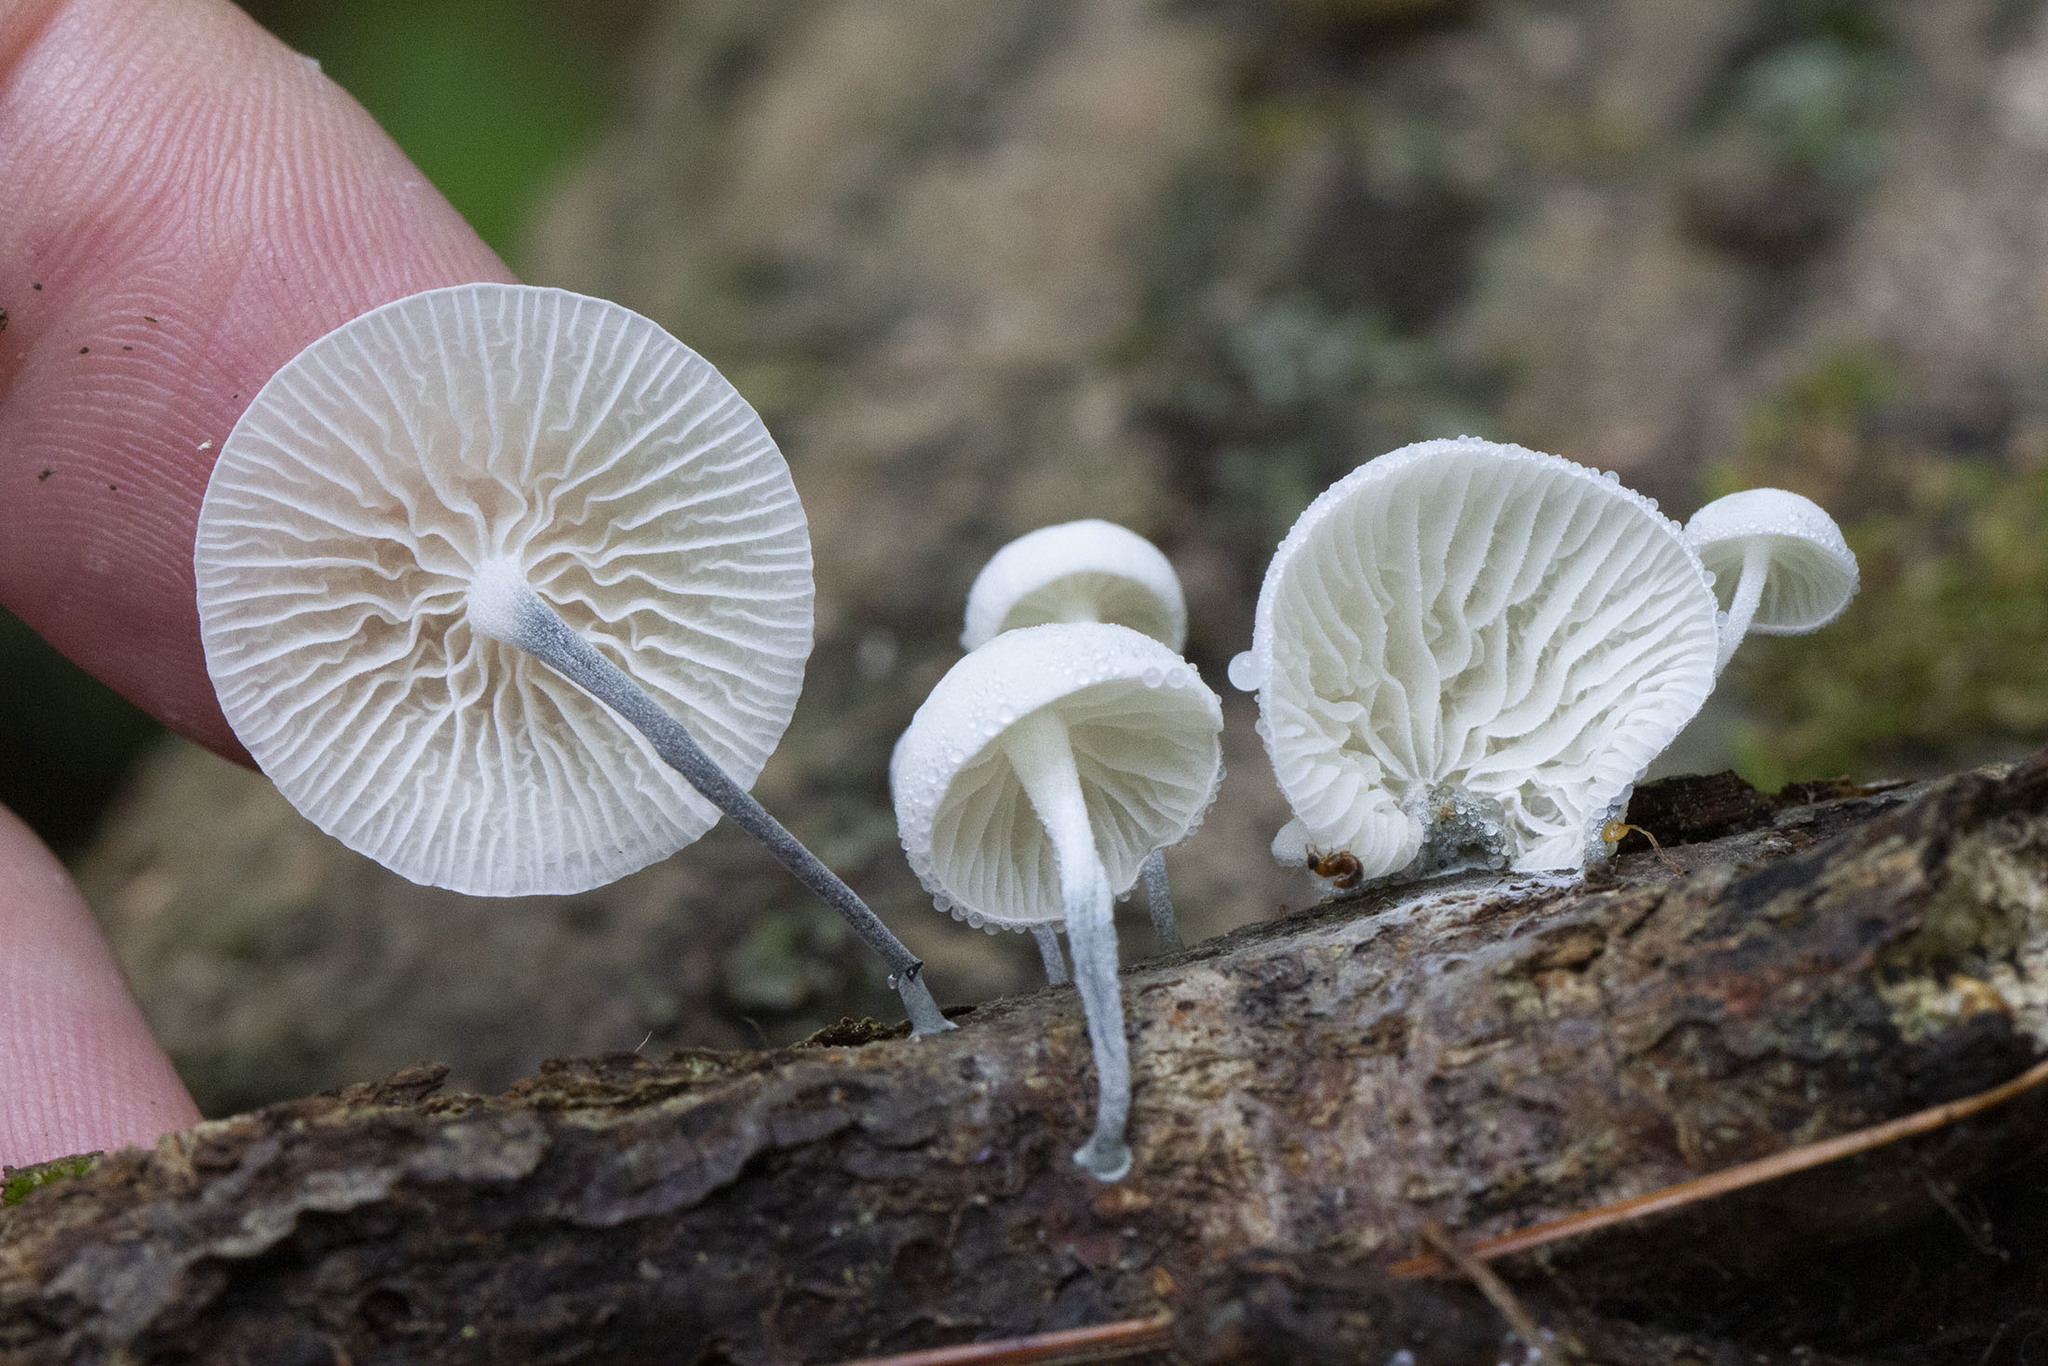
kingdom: Fungi
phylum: Basidiomycota
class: Agaricomycetes
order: Agaricales
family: Marasmiaceae
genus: Tetrapyrgos
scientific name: Tetrapyrgos nigripes
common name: Black-stalked marasmius
